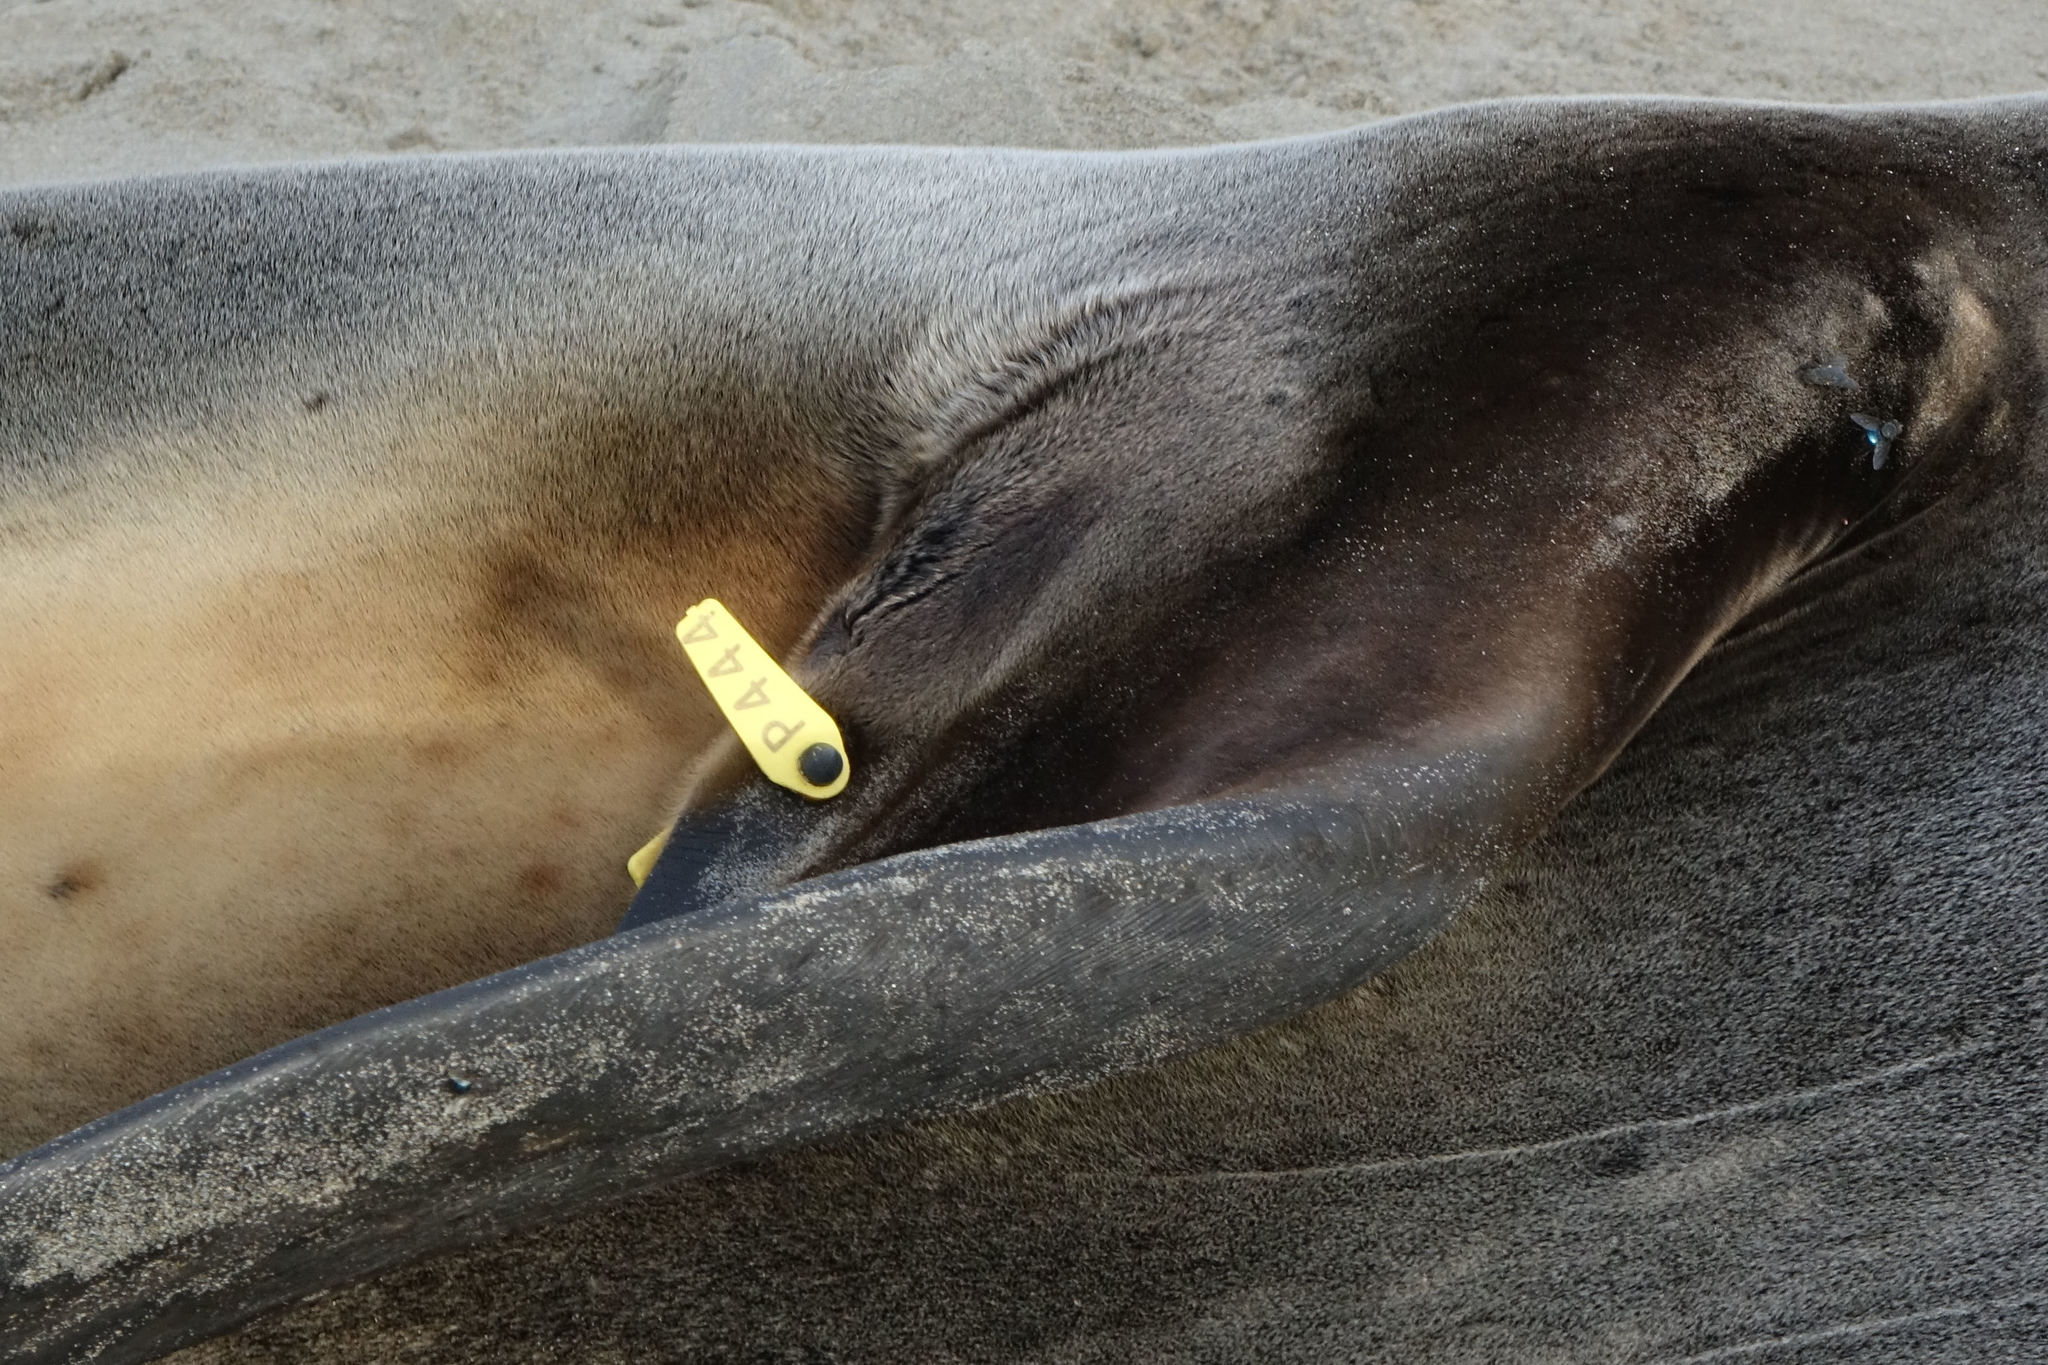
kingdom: Animalia
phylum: Chordata
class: Mammalia
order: Carnivora
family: Otariidae
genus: Phocarctos
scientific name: Phocarctos hookeri
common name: New zealand sea lion
